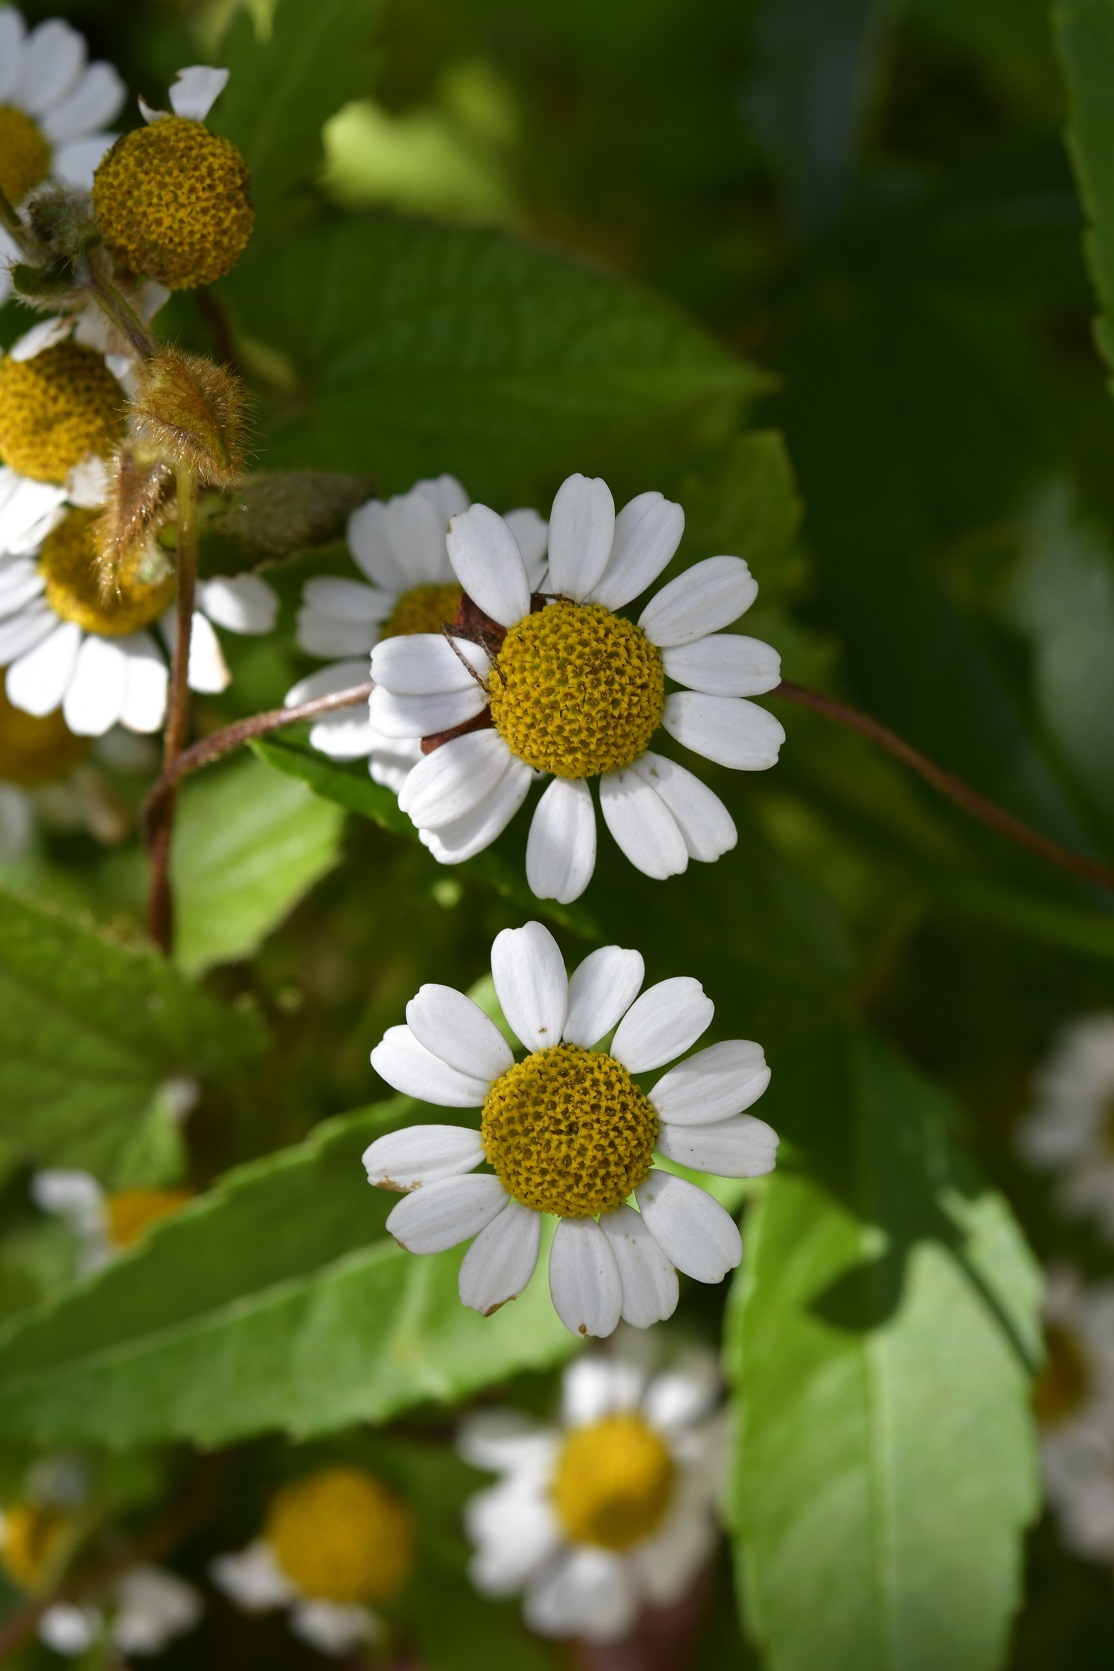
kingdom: Plantae
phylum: Tracheophyta
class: Magnoliopsida
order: Asterales
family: Asteraceae
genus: Tanacetum
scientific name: Tanacetum parthenium
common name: Feverfew
